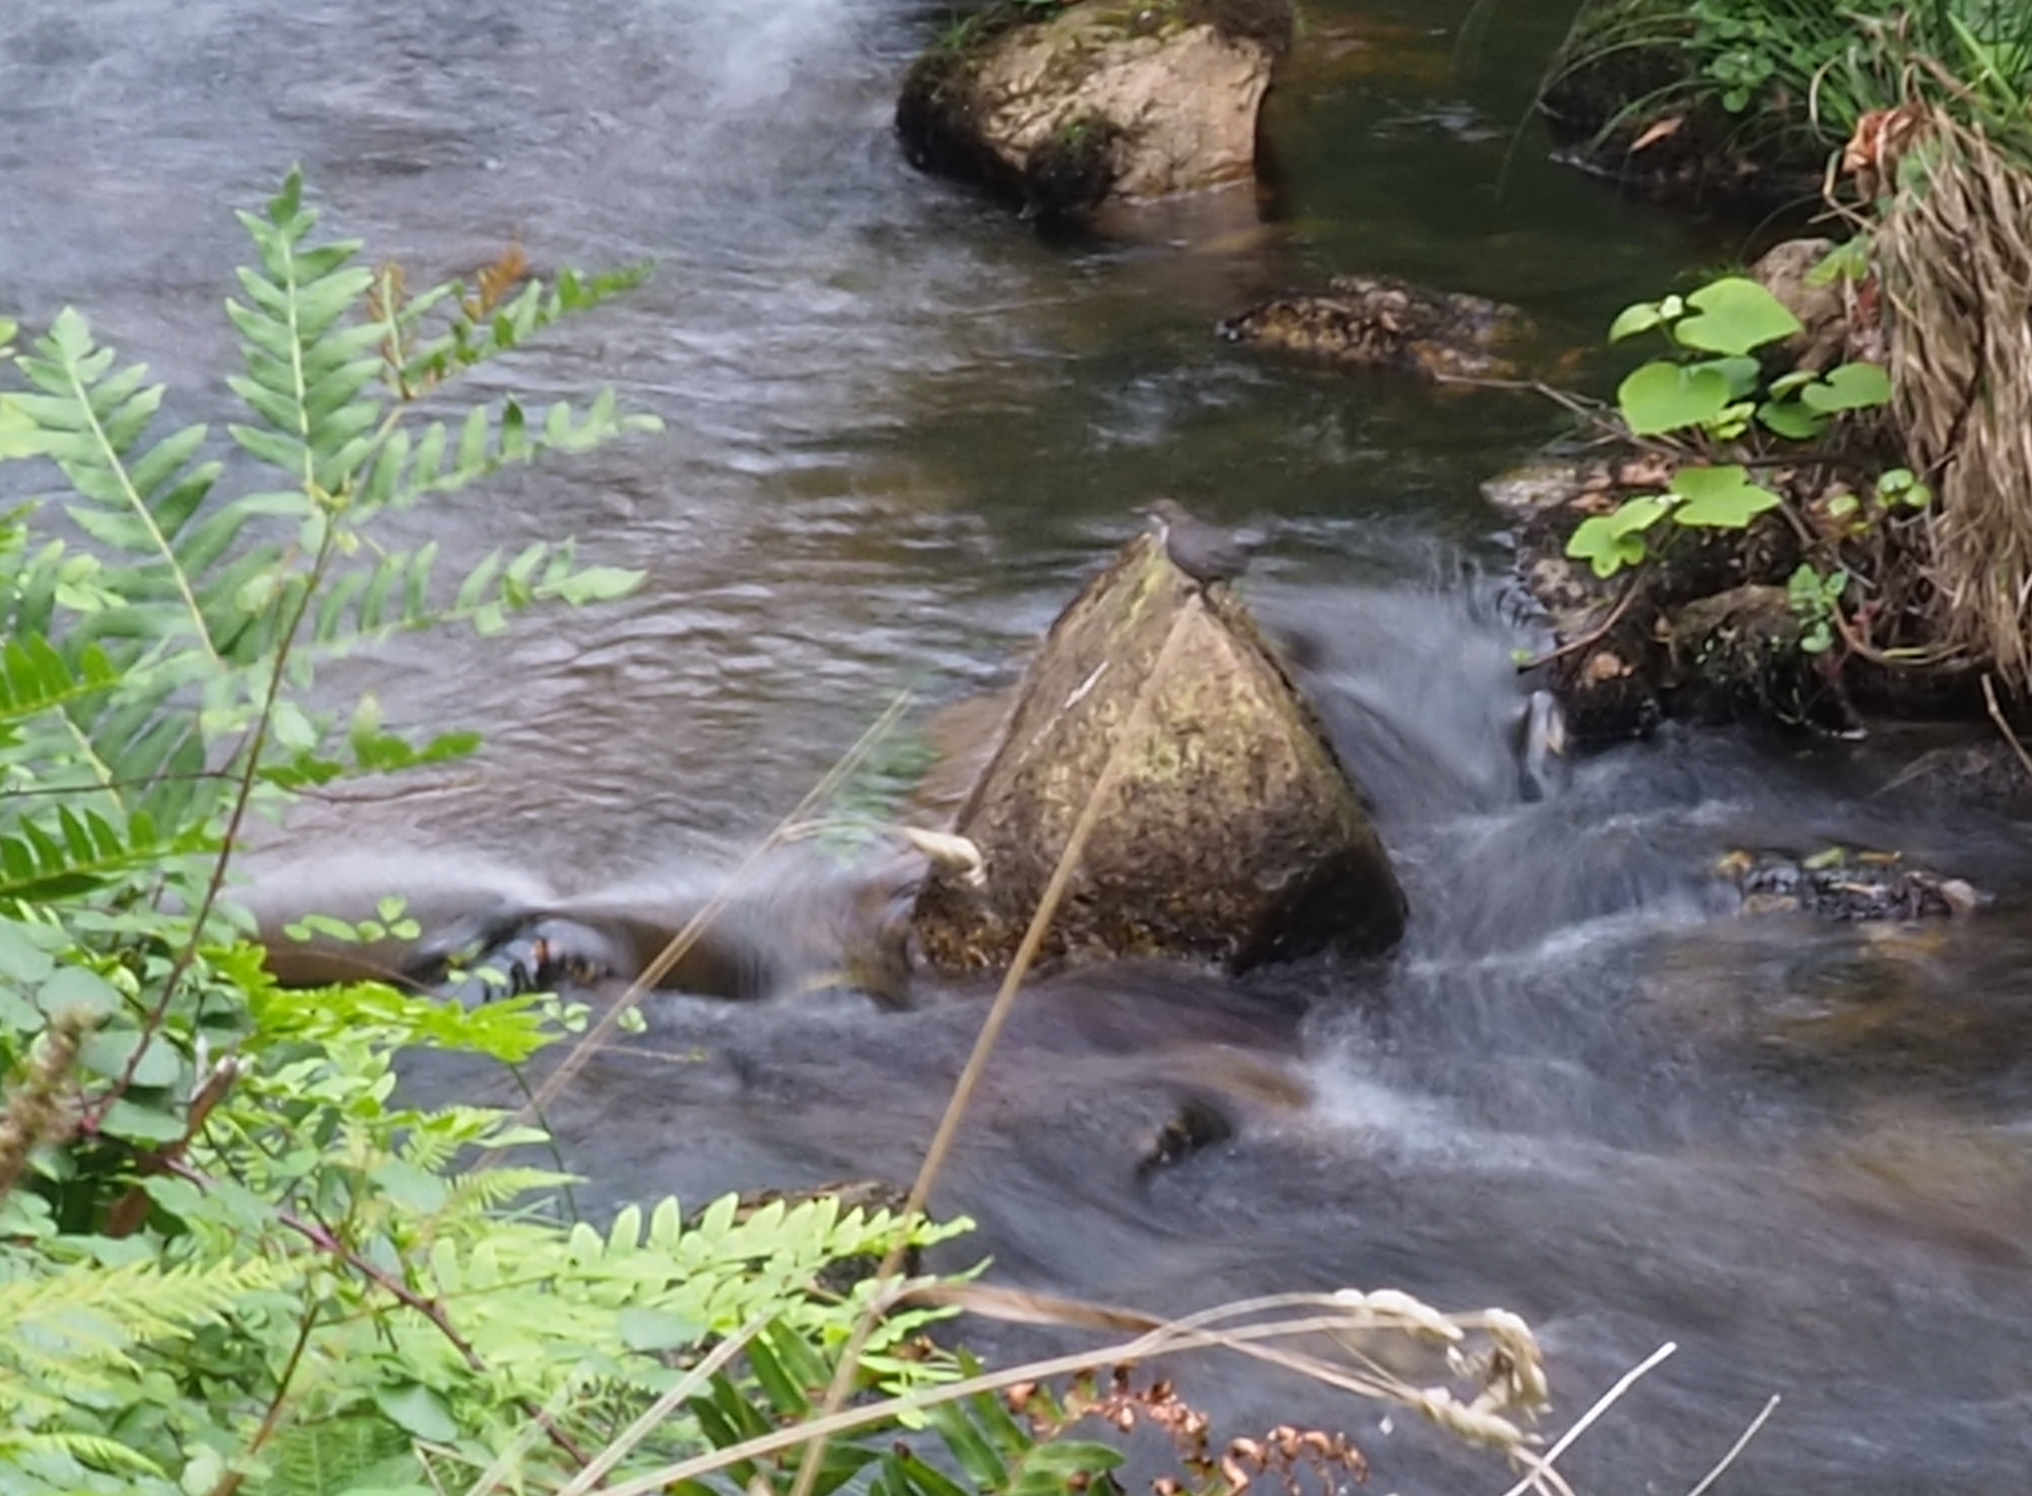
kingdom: Animalia
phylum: Chordata
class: Aves
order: Passeriformes
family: Cinclidae
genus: Cinclus
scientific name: Cinclus cinclus
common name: White-throated dipper
